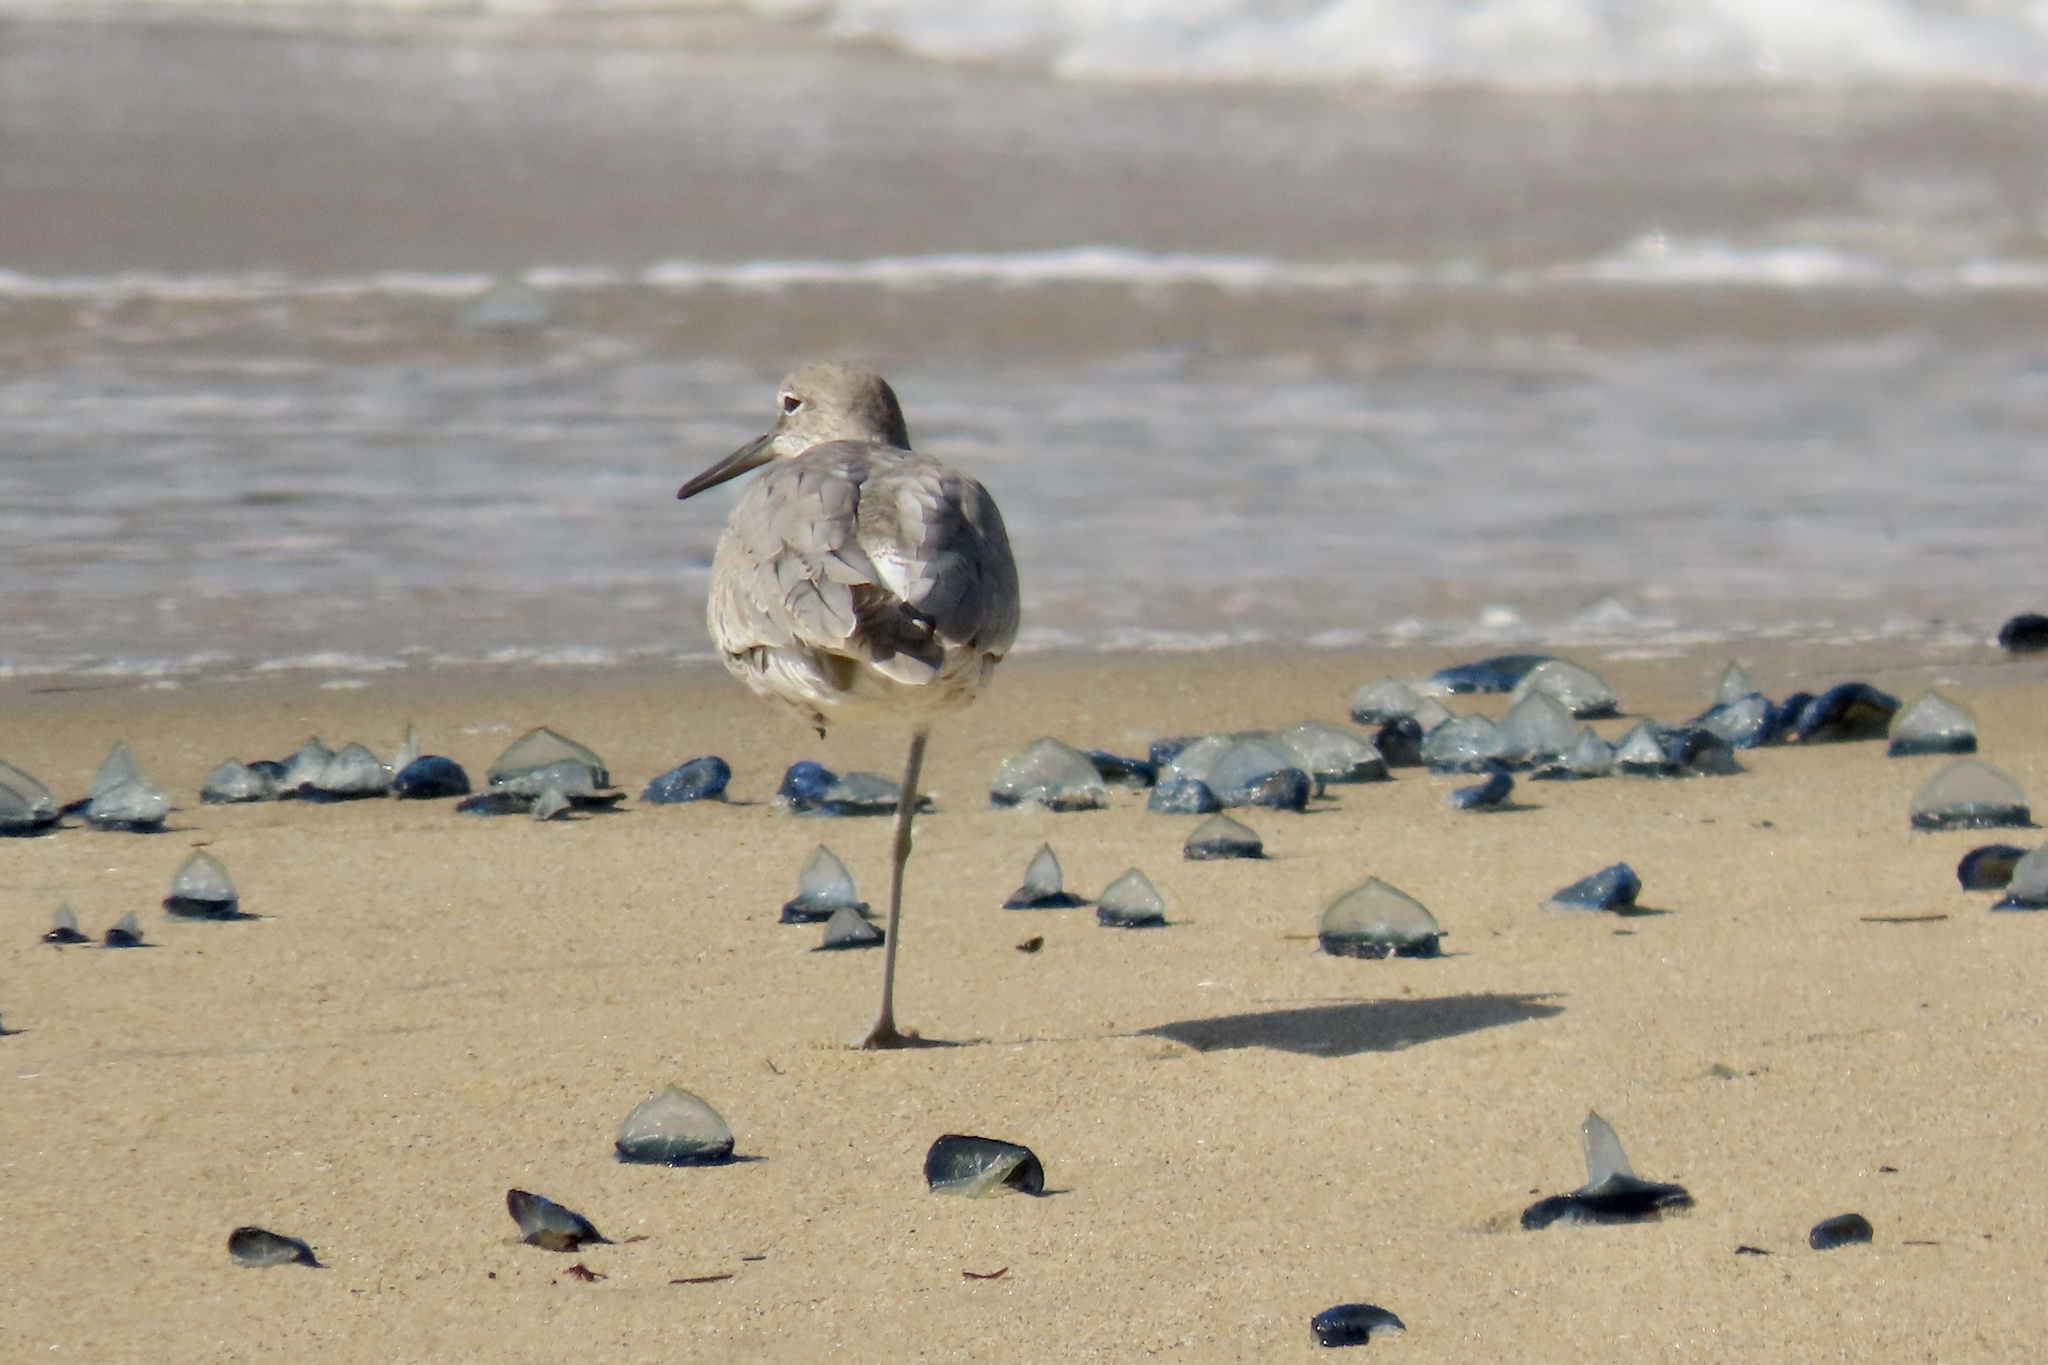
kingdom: Animalia
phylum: Chordata
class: Aves
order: Charadriiformes
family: Scolopacidae
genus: Tringa
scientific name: Tringa semipalmata
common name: Willet
